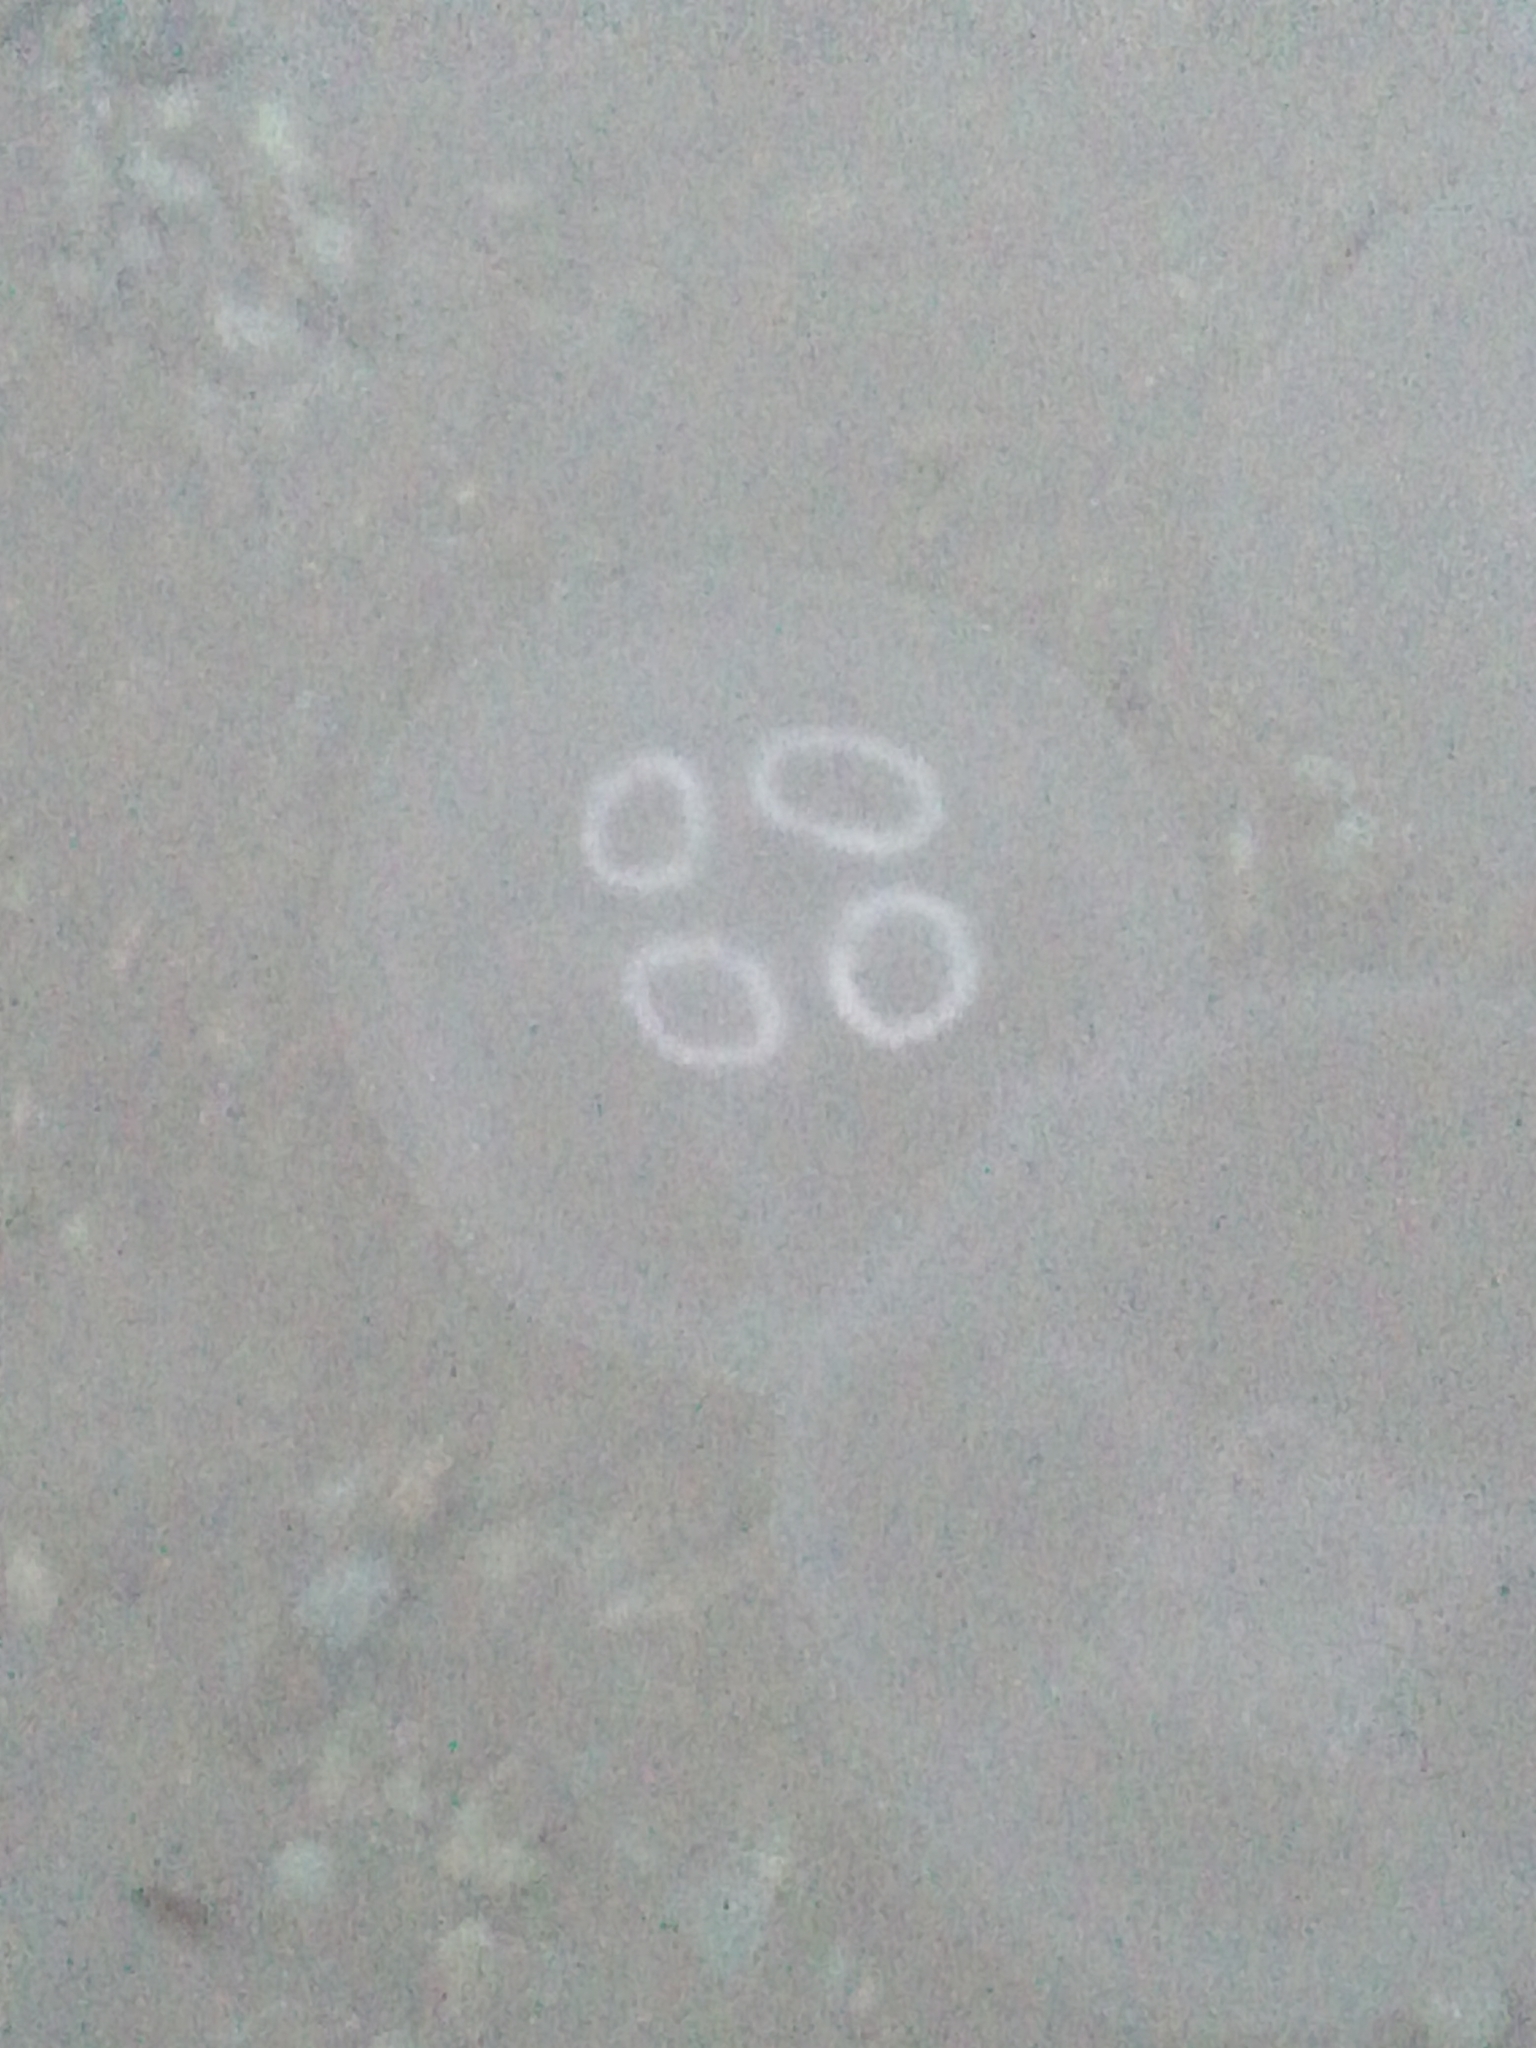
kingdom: Animalia
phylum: Cnidaria
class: Scyphozoa
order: Semaeostomeae
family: Ulmaridae
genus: Aurelia
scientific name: Aurelia aurita
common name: Moon jellyfish
